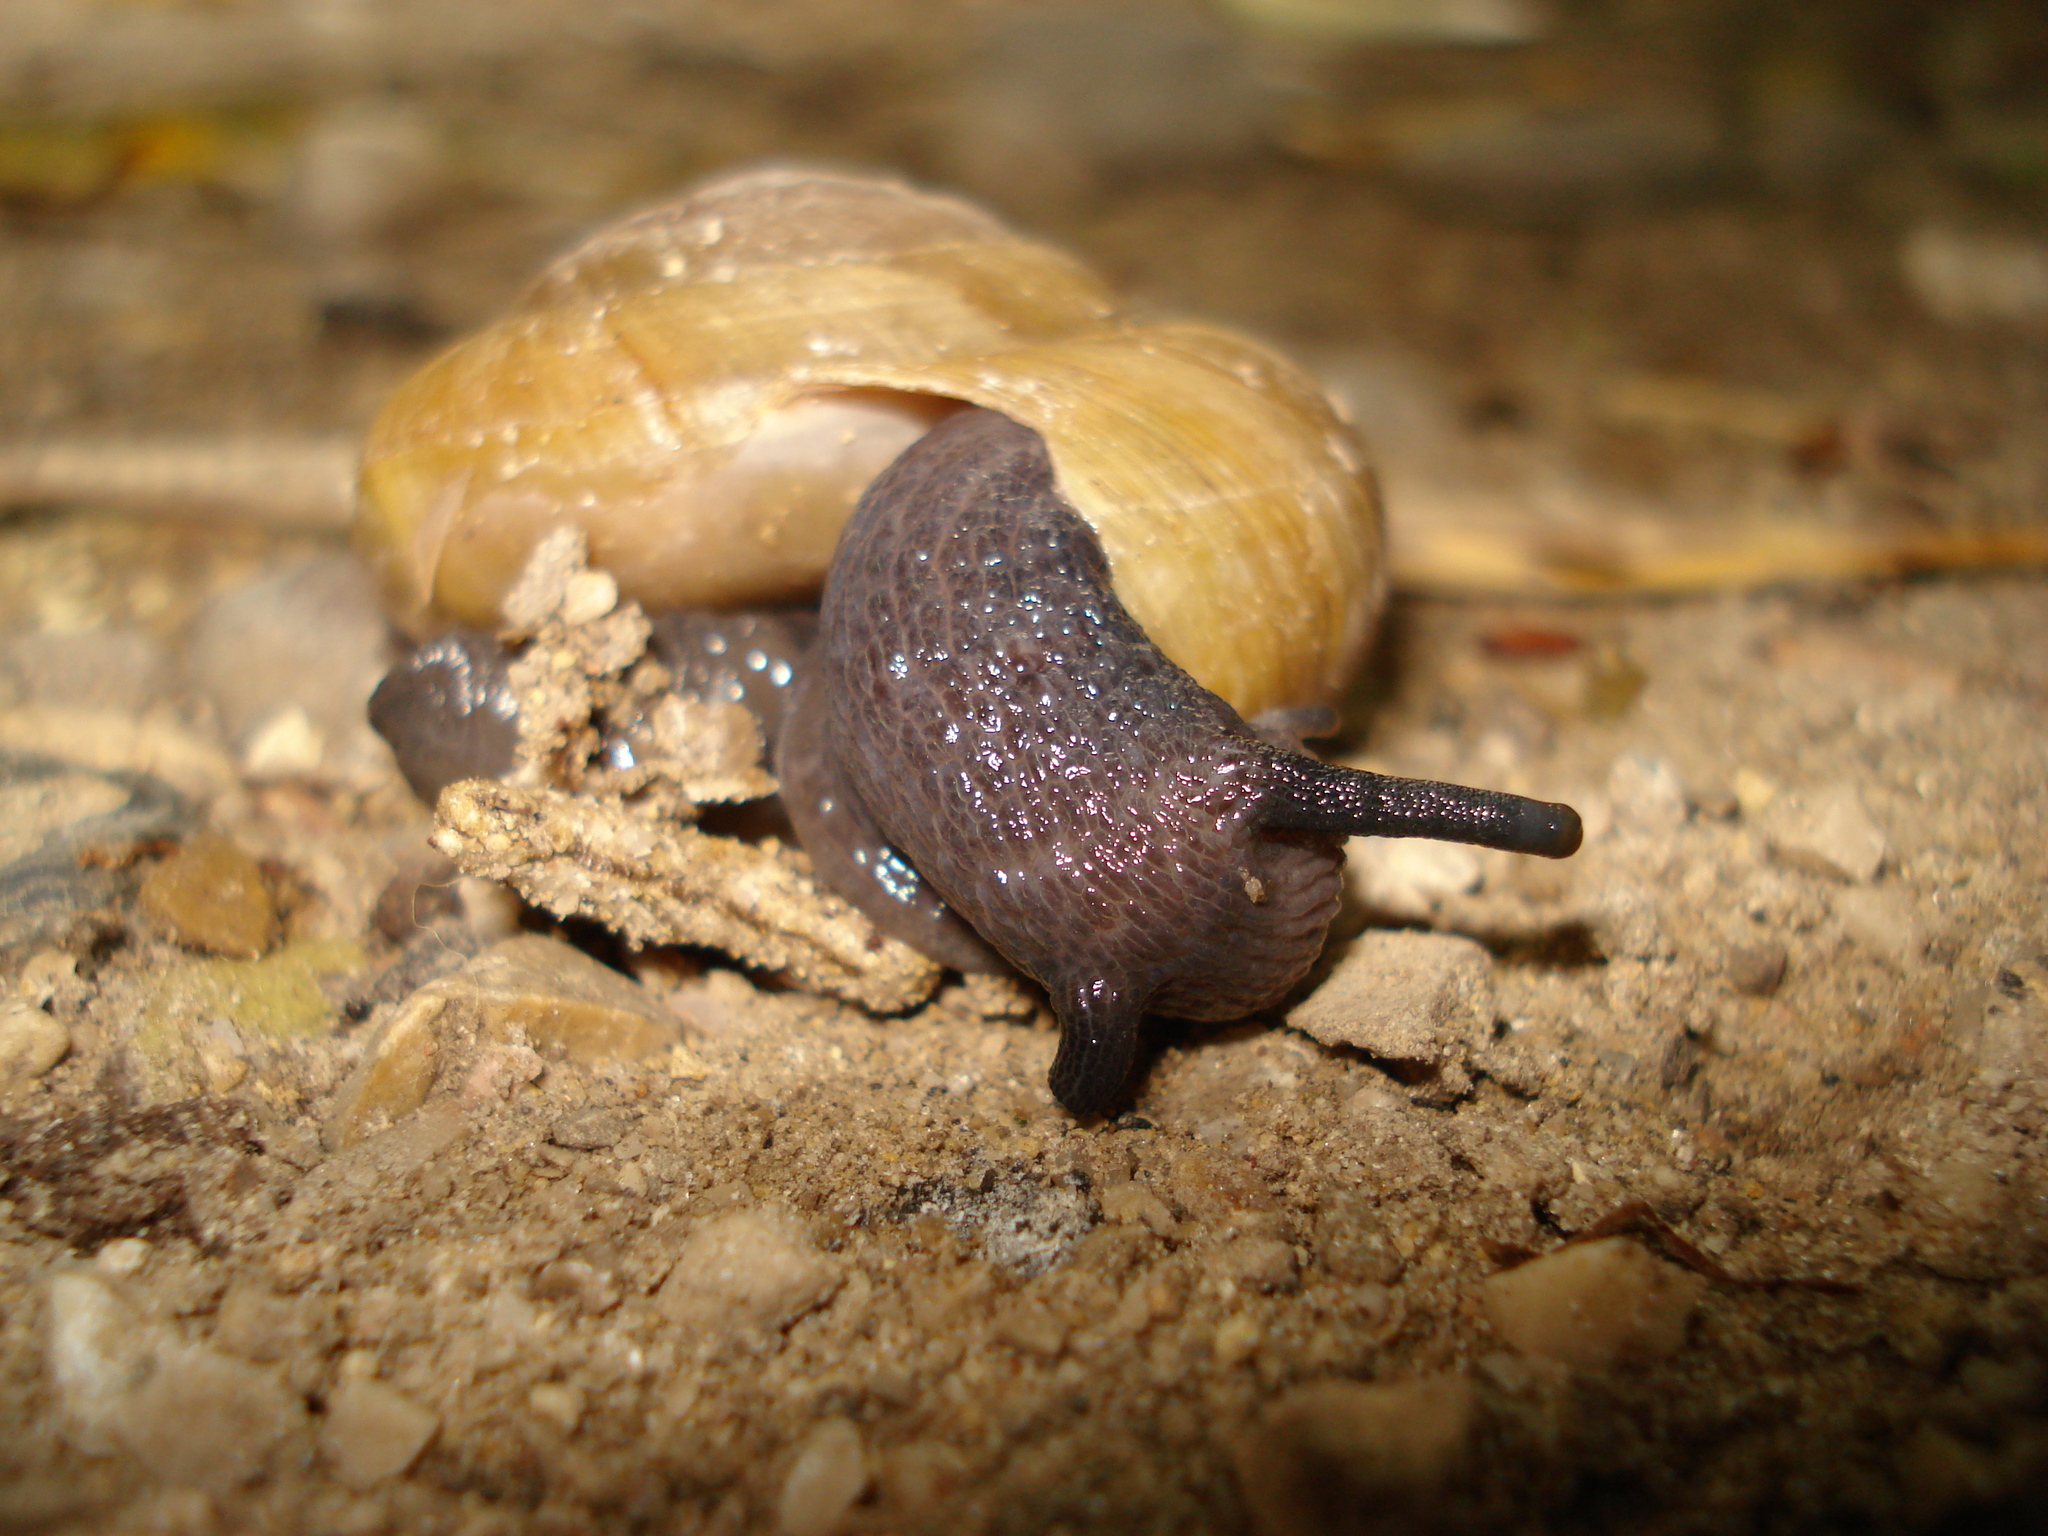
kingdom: Animalia
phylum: Mollusca
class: Gastropoda
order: Stylommatophora
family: Zonitidae
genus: Zonites
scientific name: Zonites algirus
